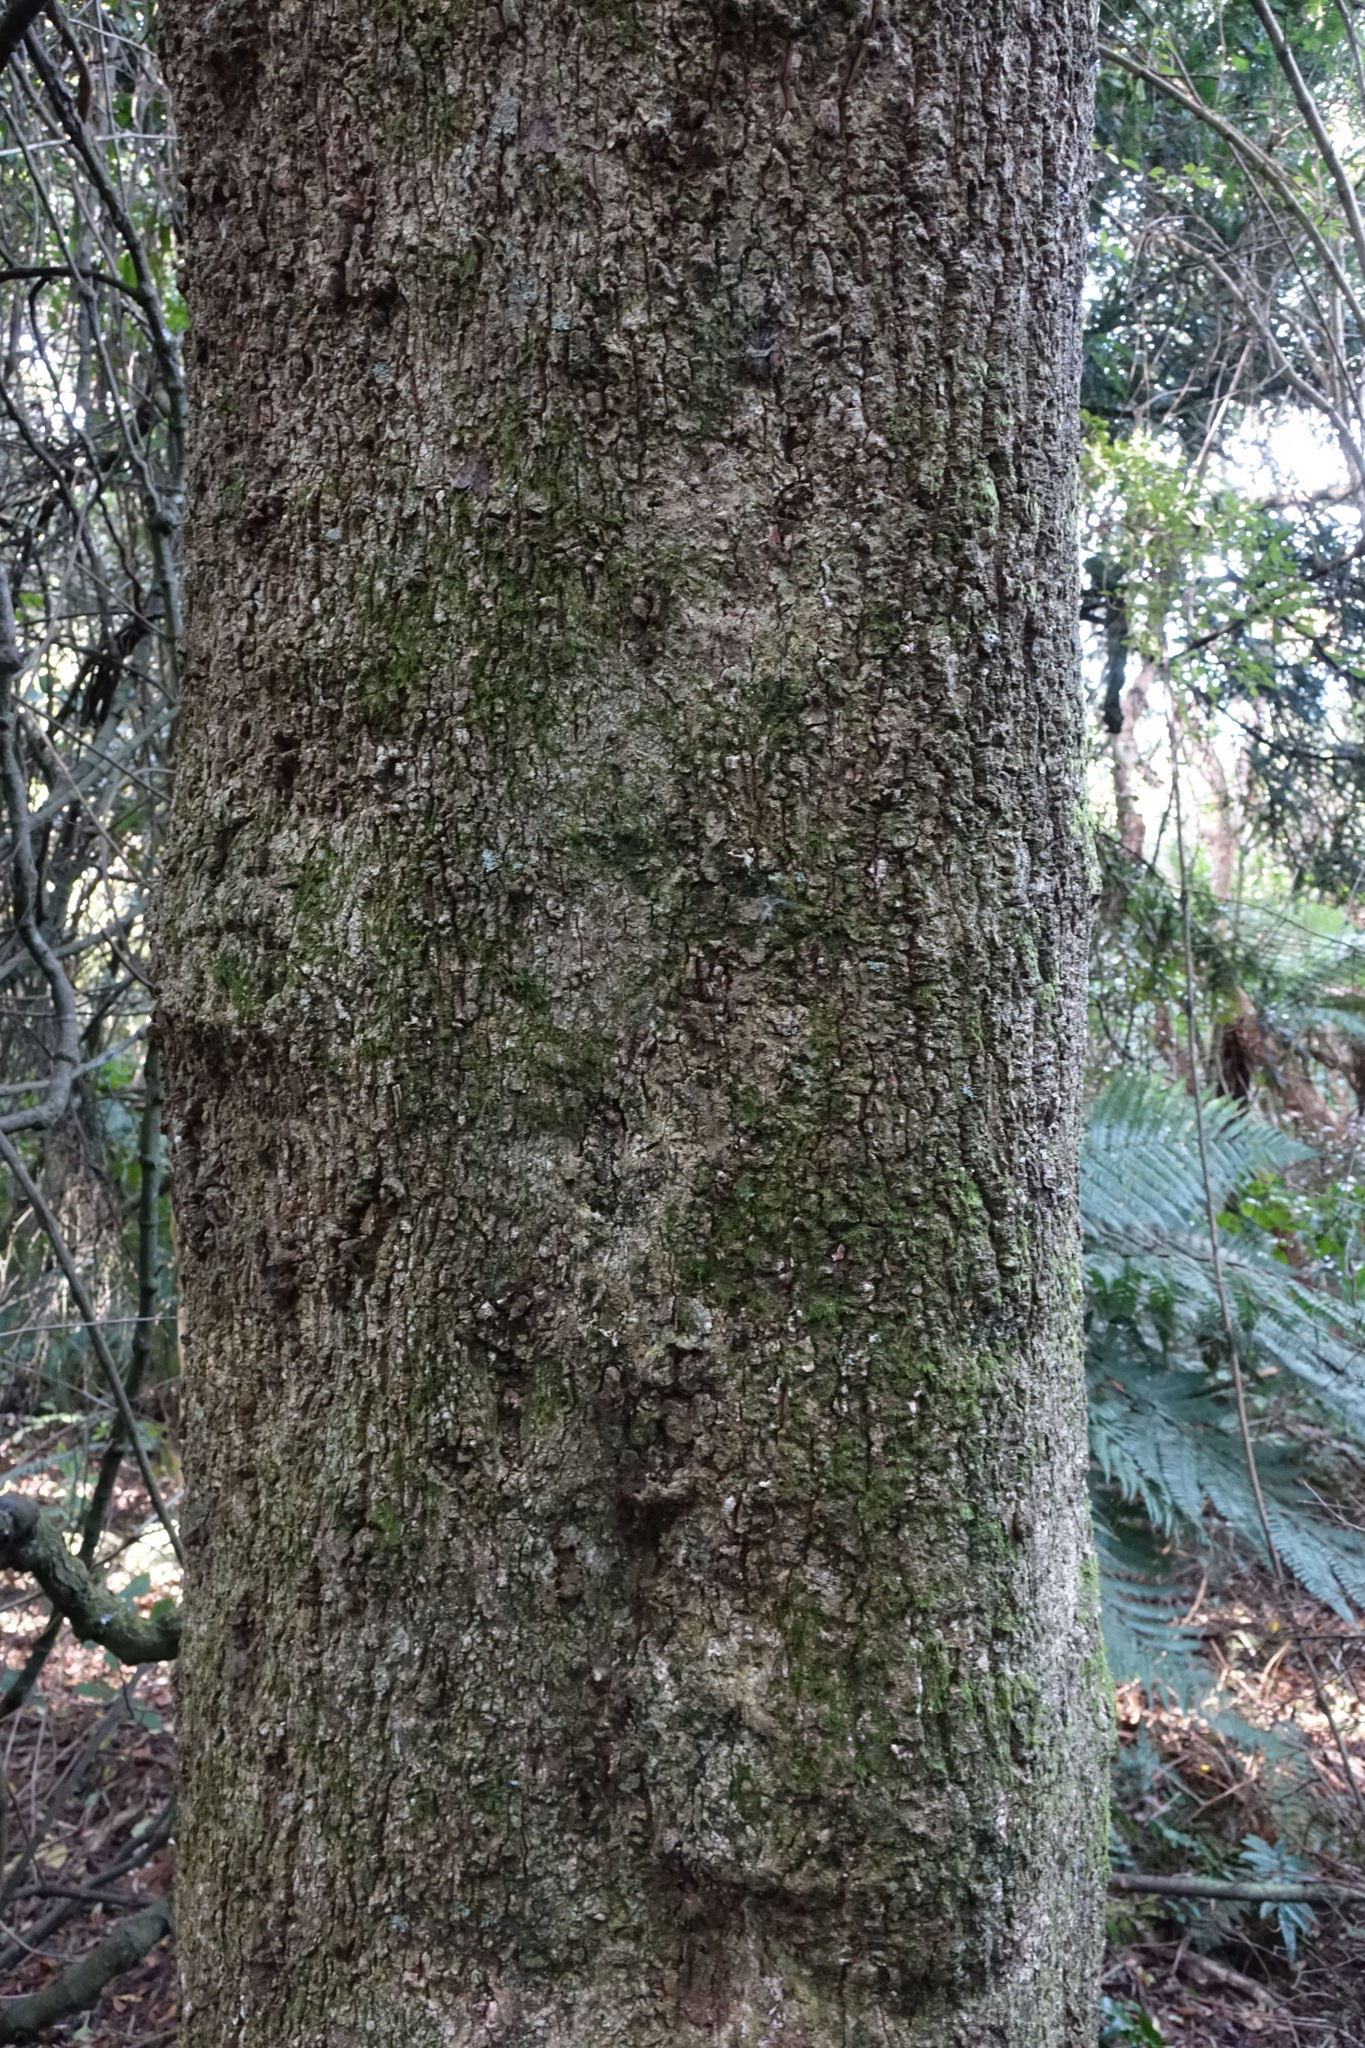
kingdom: Plantae
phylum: Tracheophyta
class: Magnoliopsida
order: Oxalidales
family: Elaeocarpaceae
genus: Elaeocarpus
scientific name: Elaeocarpus hookerianus
